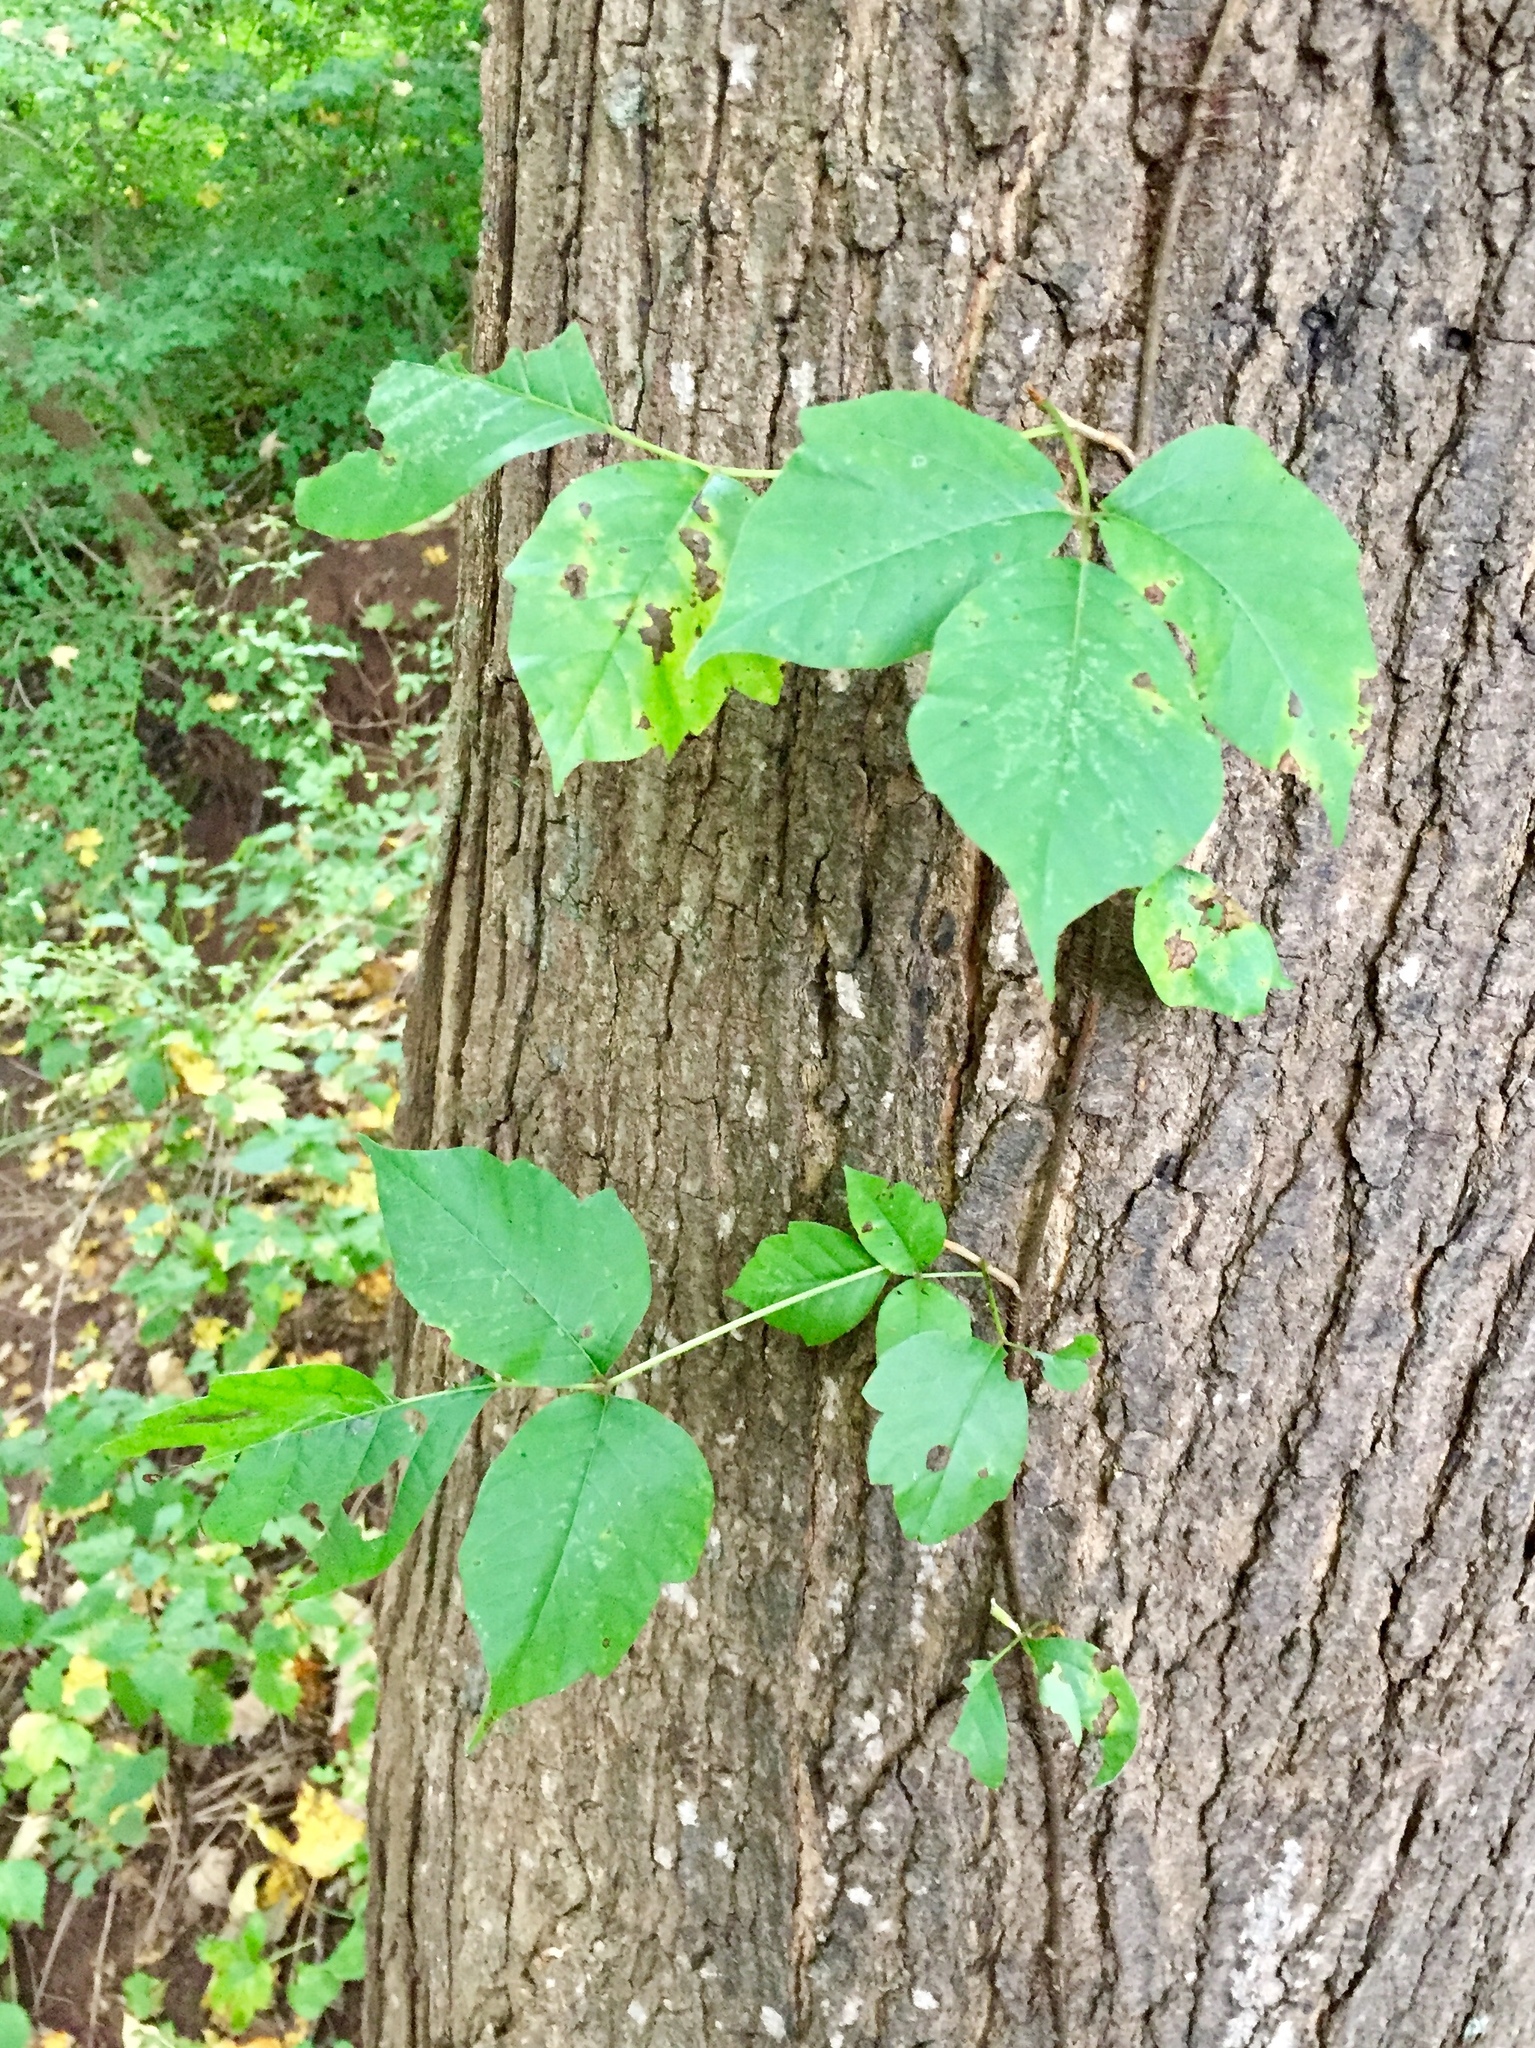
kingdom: Plantae
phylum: Tracheophyta
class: Magnoliopsida
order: Sapindales
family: Anacardiaceae
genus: Toxicodendron
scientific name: Toxicodendron radicans
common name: Poison ivy
